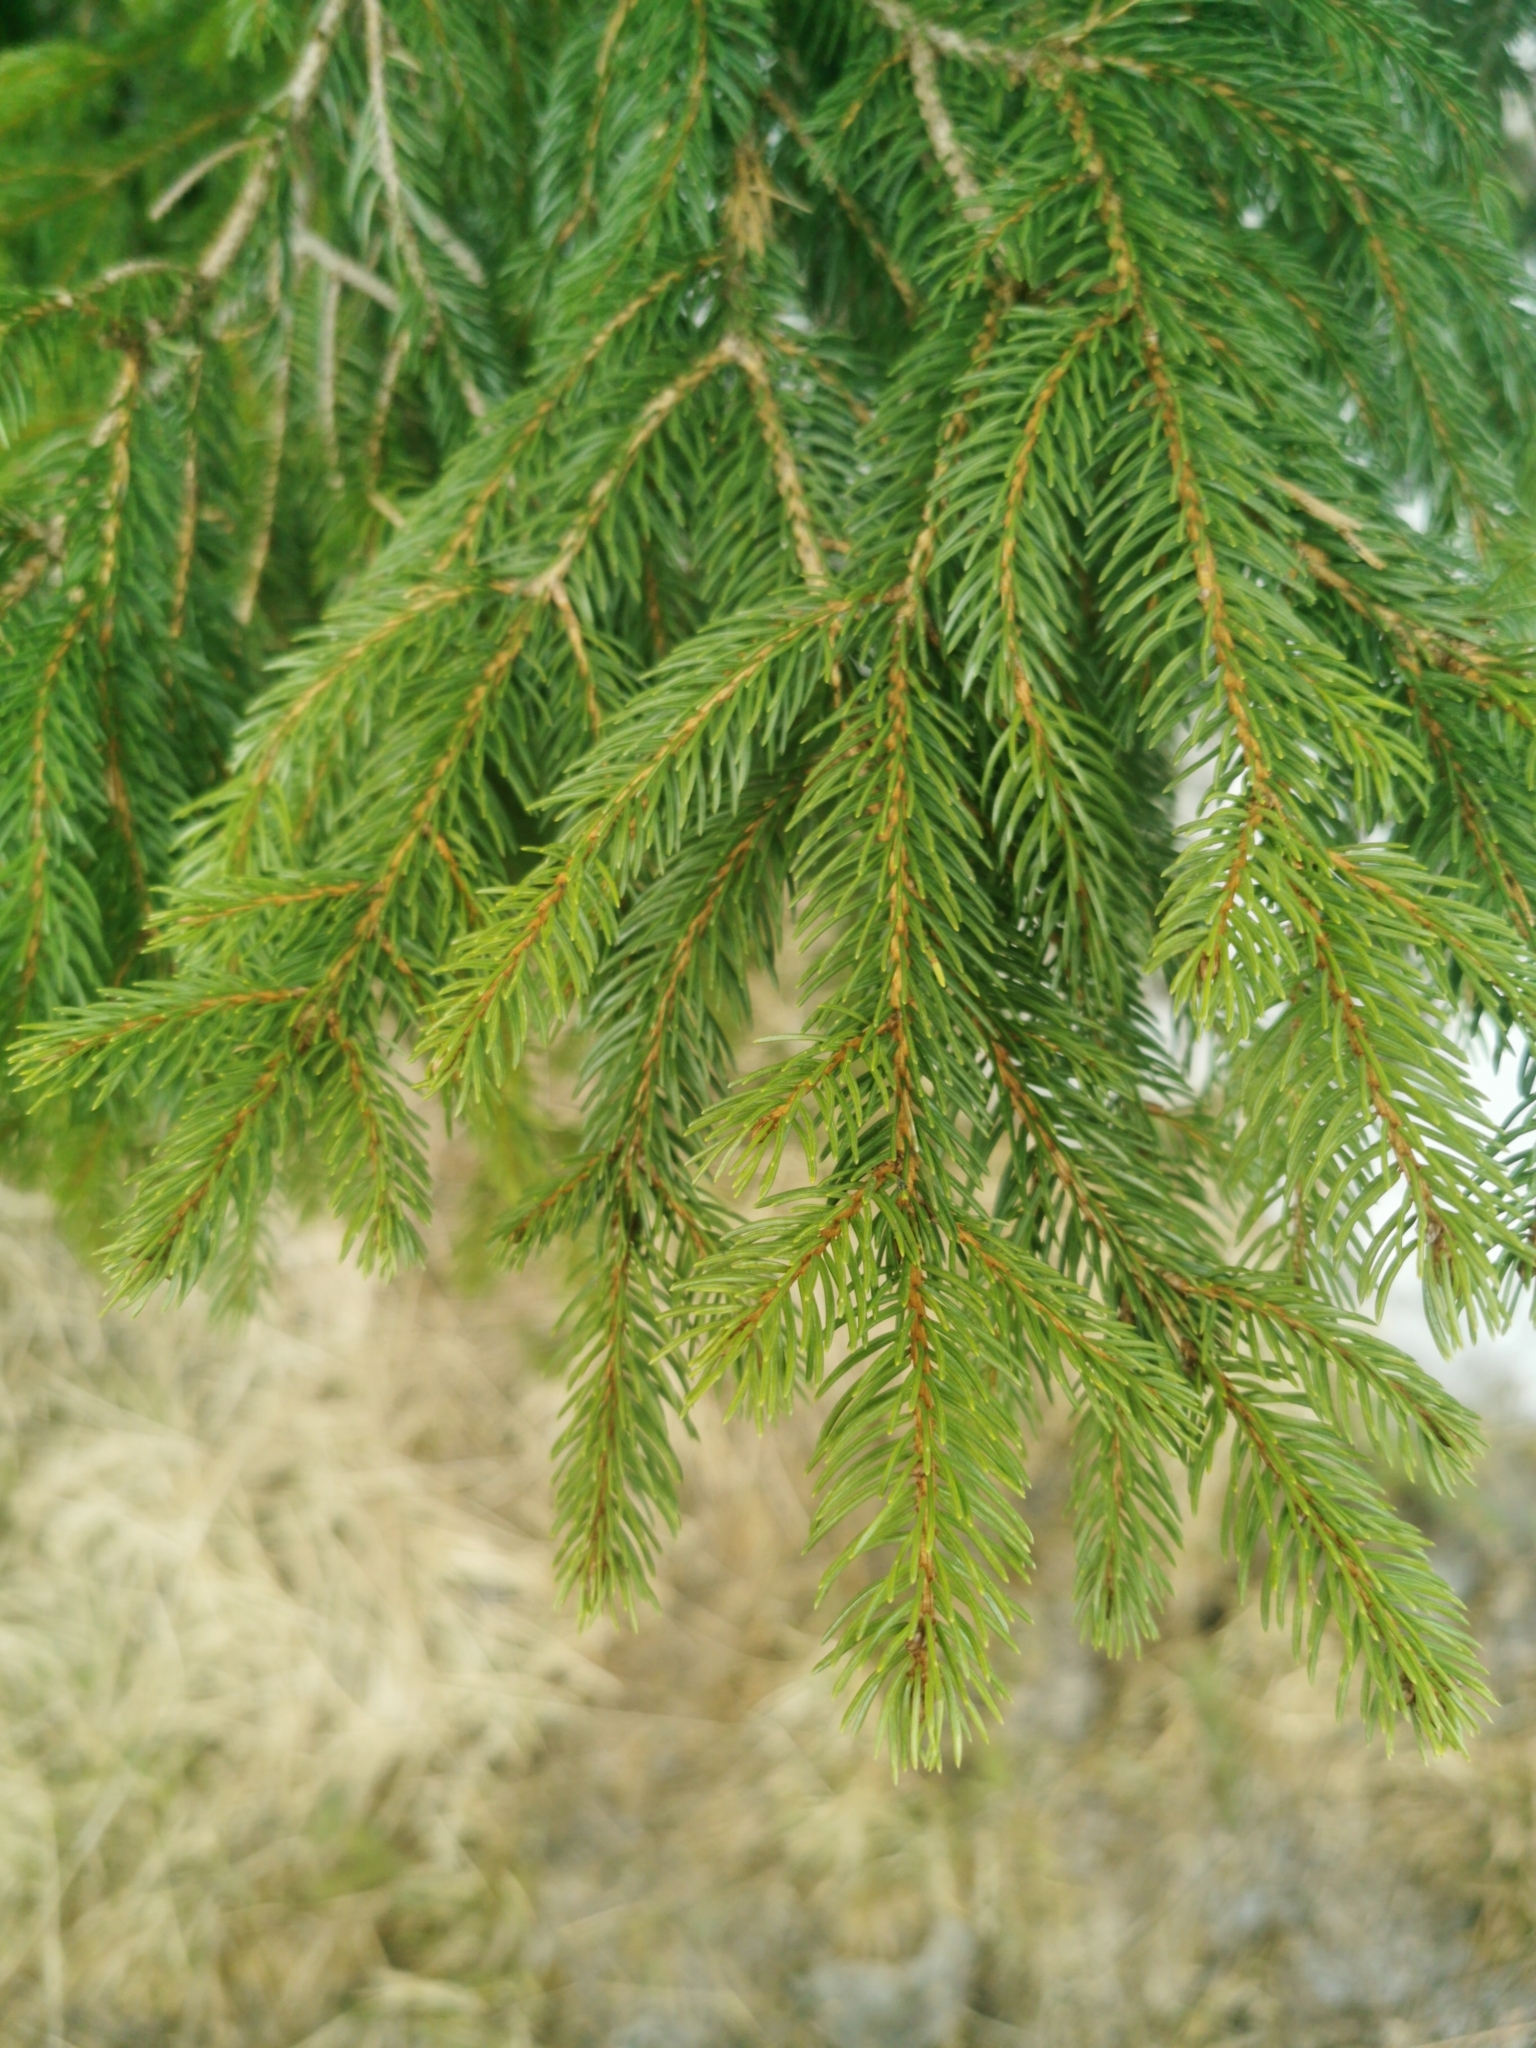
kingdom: Plantae
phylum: Tracheophyta
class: Pinopsida
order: Pinales
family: Pinaceae
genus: Picea
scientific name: Picea abies
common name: Norway spruce
